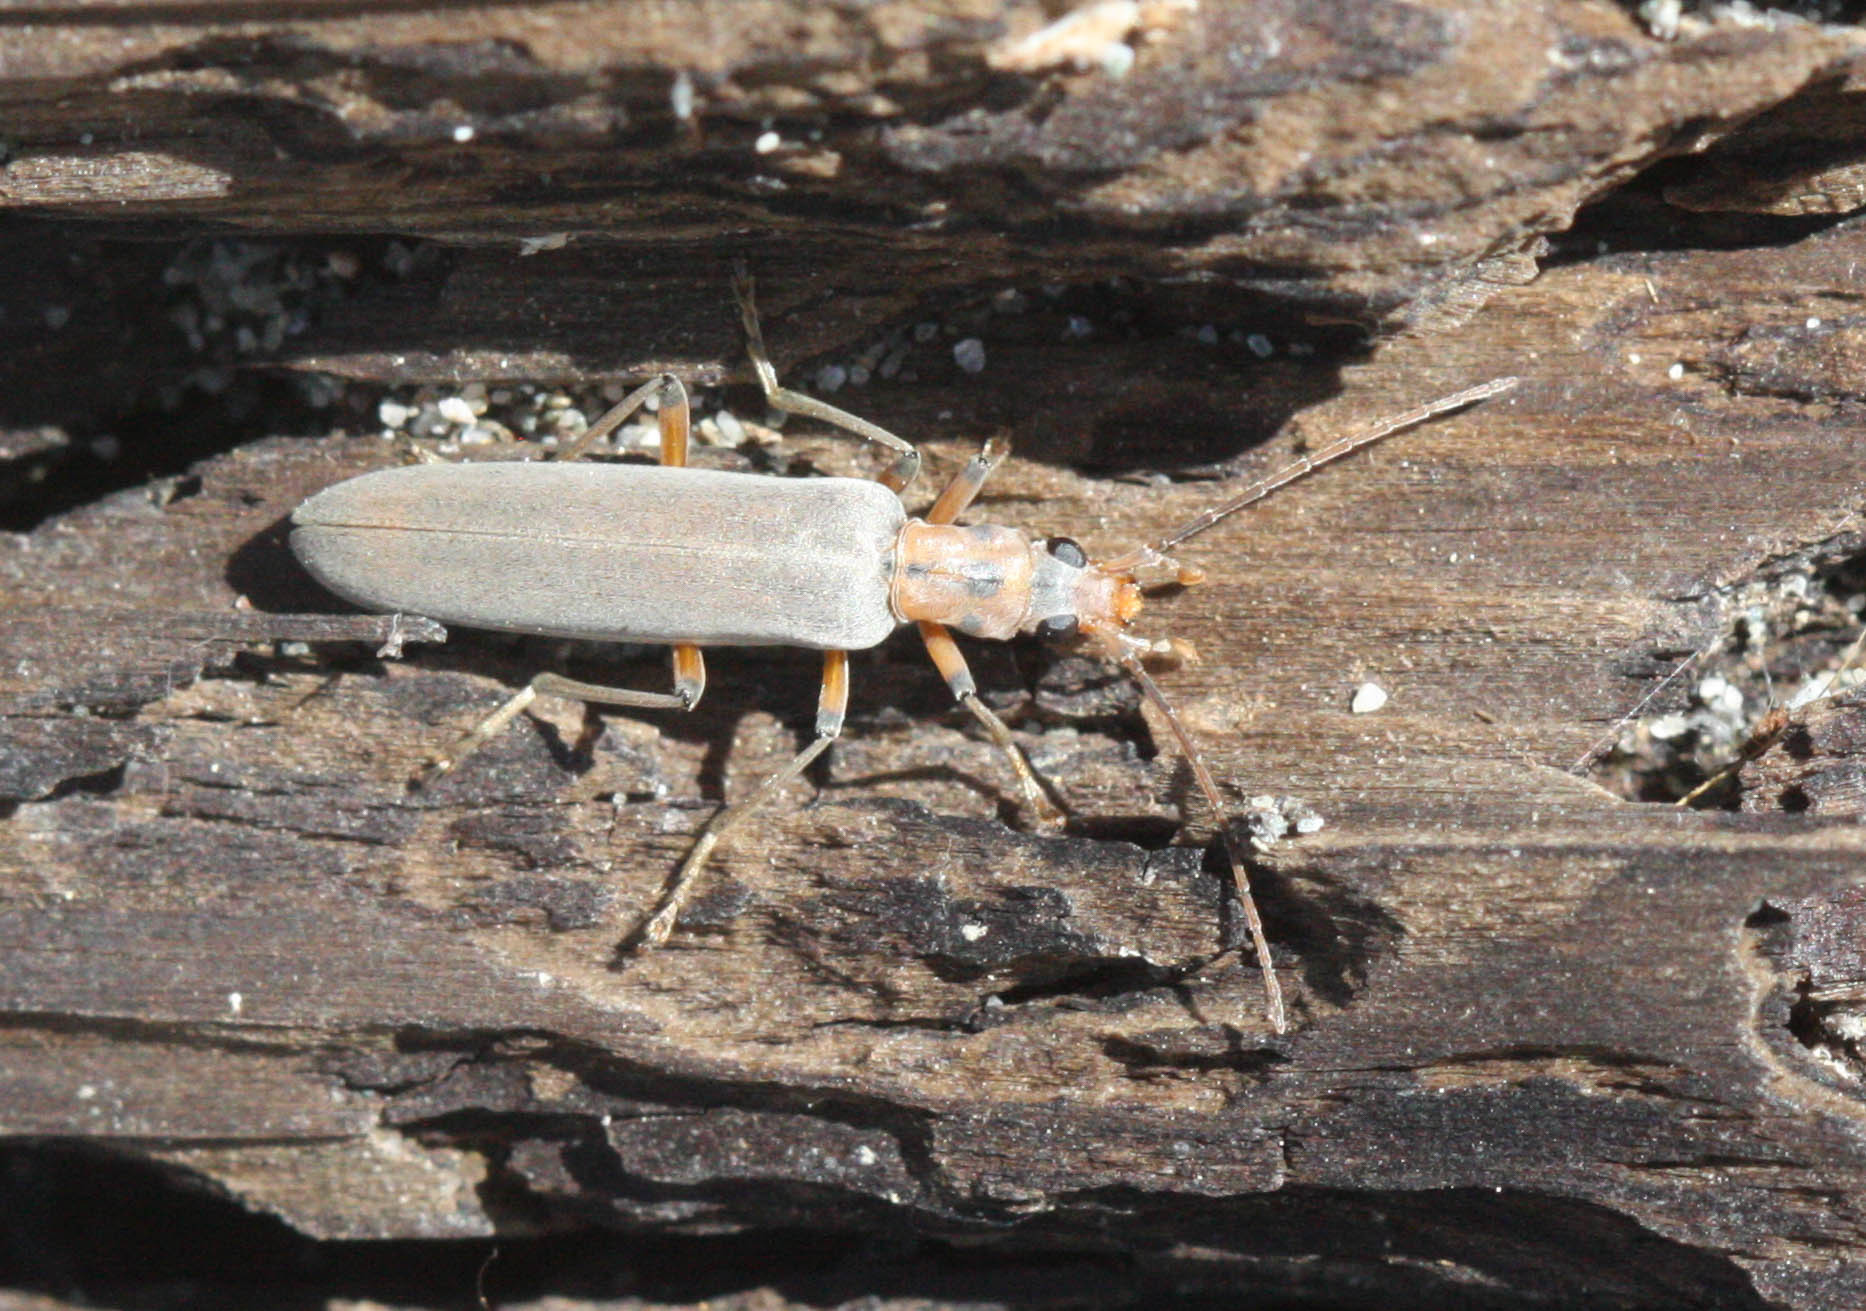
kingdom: Animalia
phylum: Arthropoda
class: Insecta
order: Coleoptera
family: Oedemeridae
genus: Copidita
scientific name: Copidita quadrimaculata
